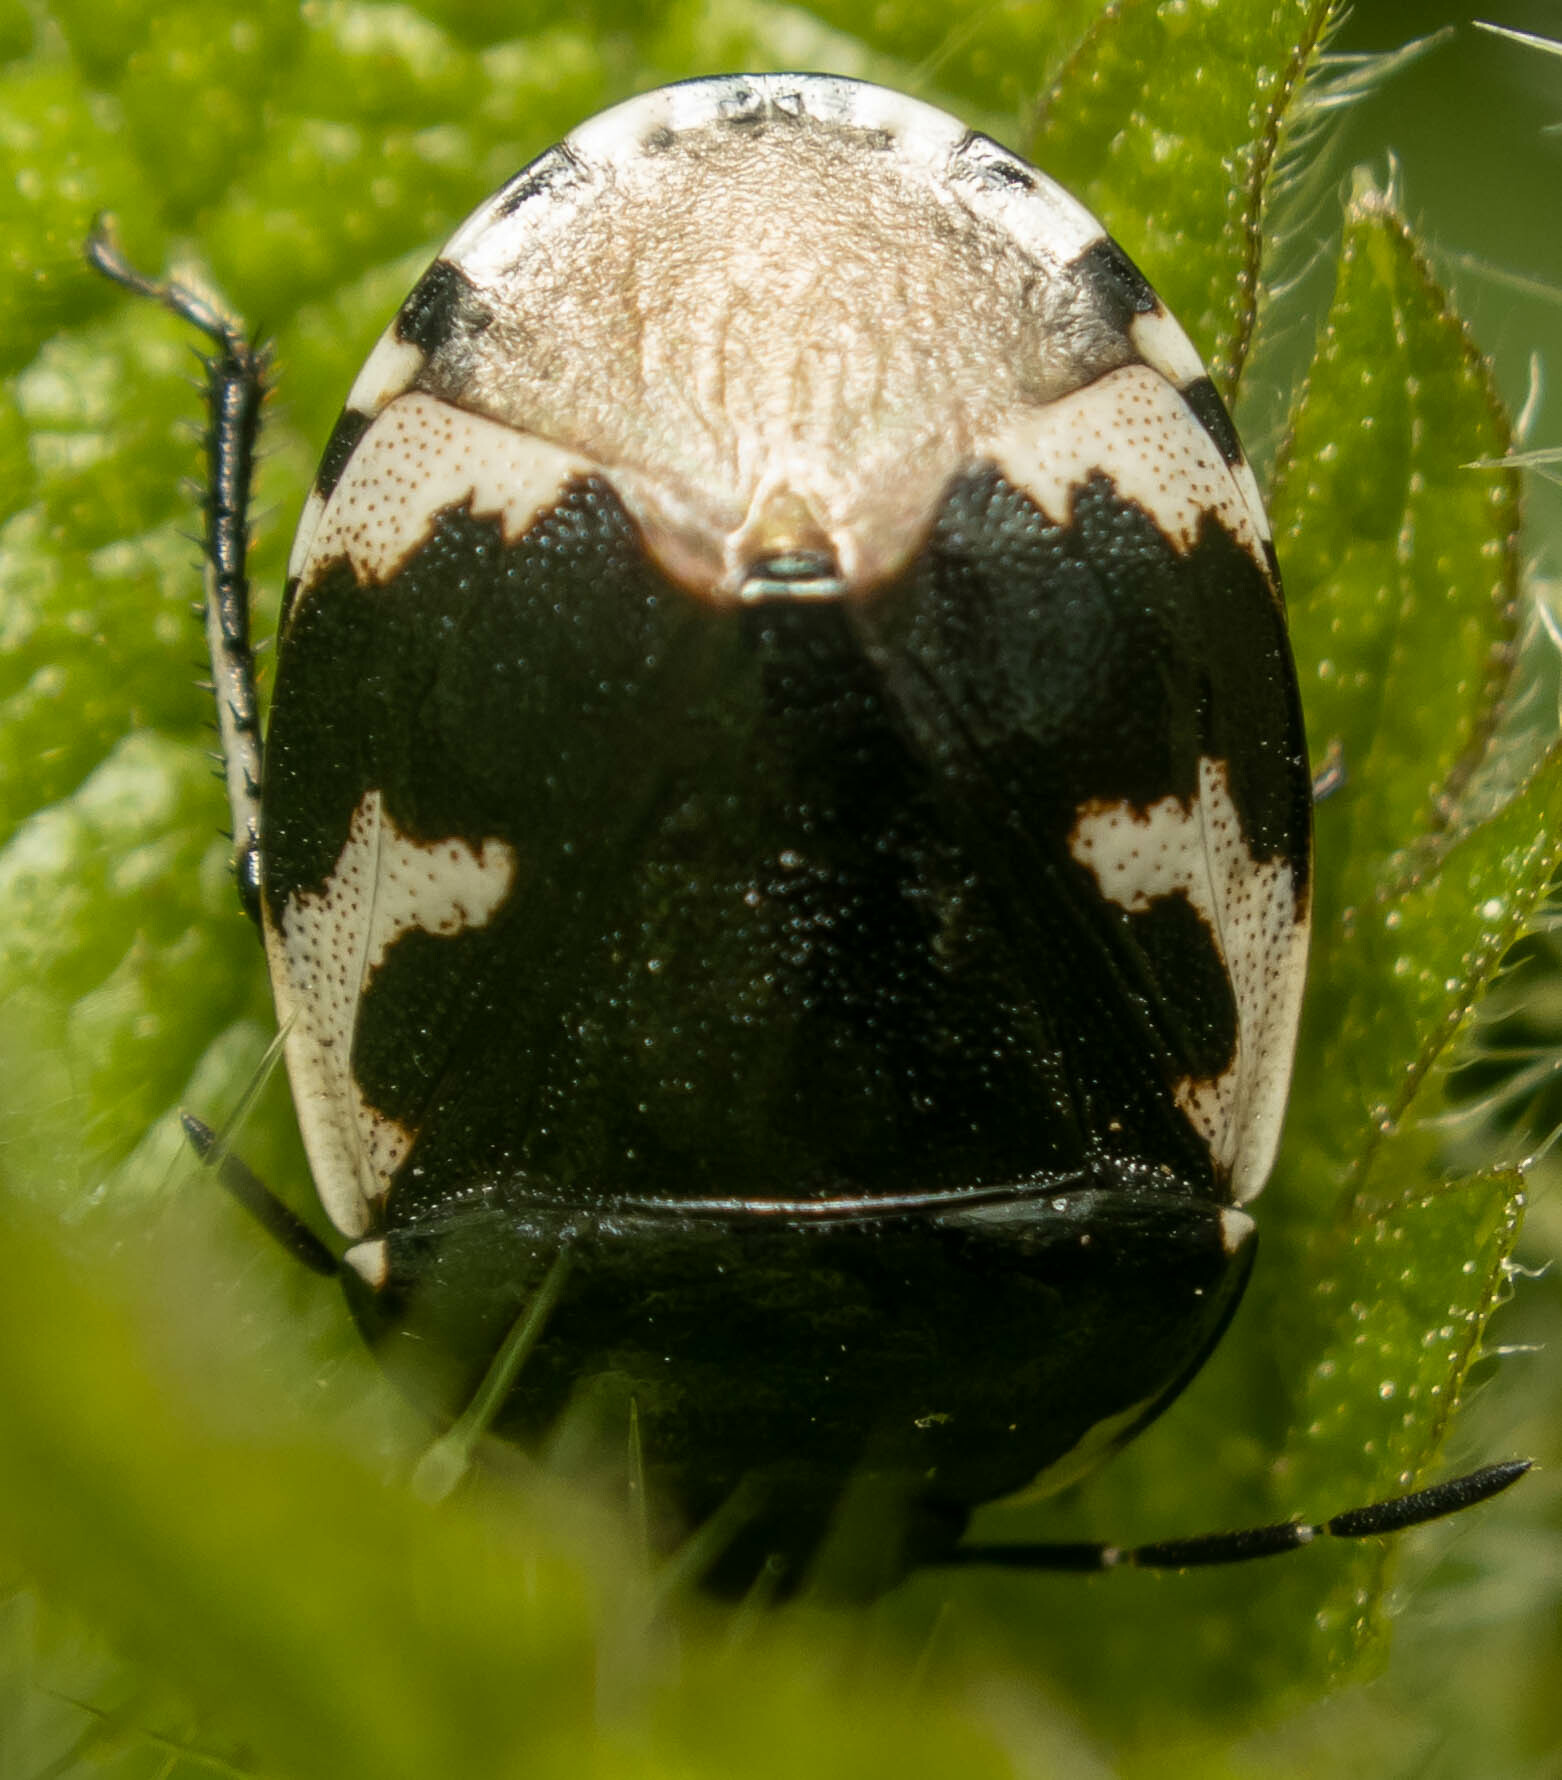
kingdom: Animalia
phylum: Arthropoda
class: Insecta
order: Hemiptera
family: Cydnidae
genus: Tritomegas
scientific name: Tritomegas bicolor
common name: Pied shieldbug
